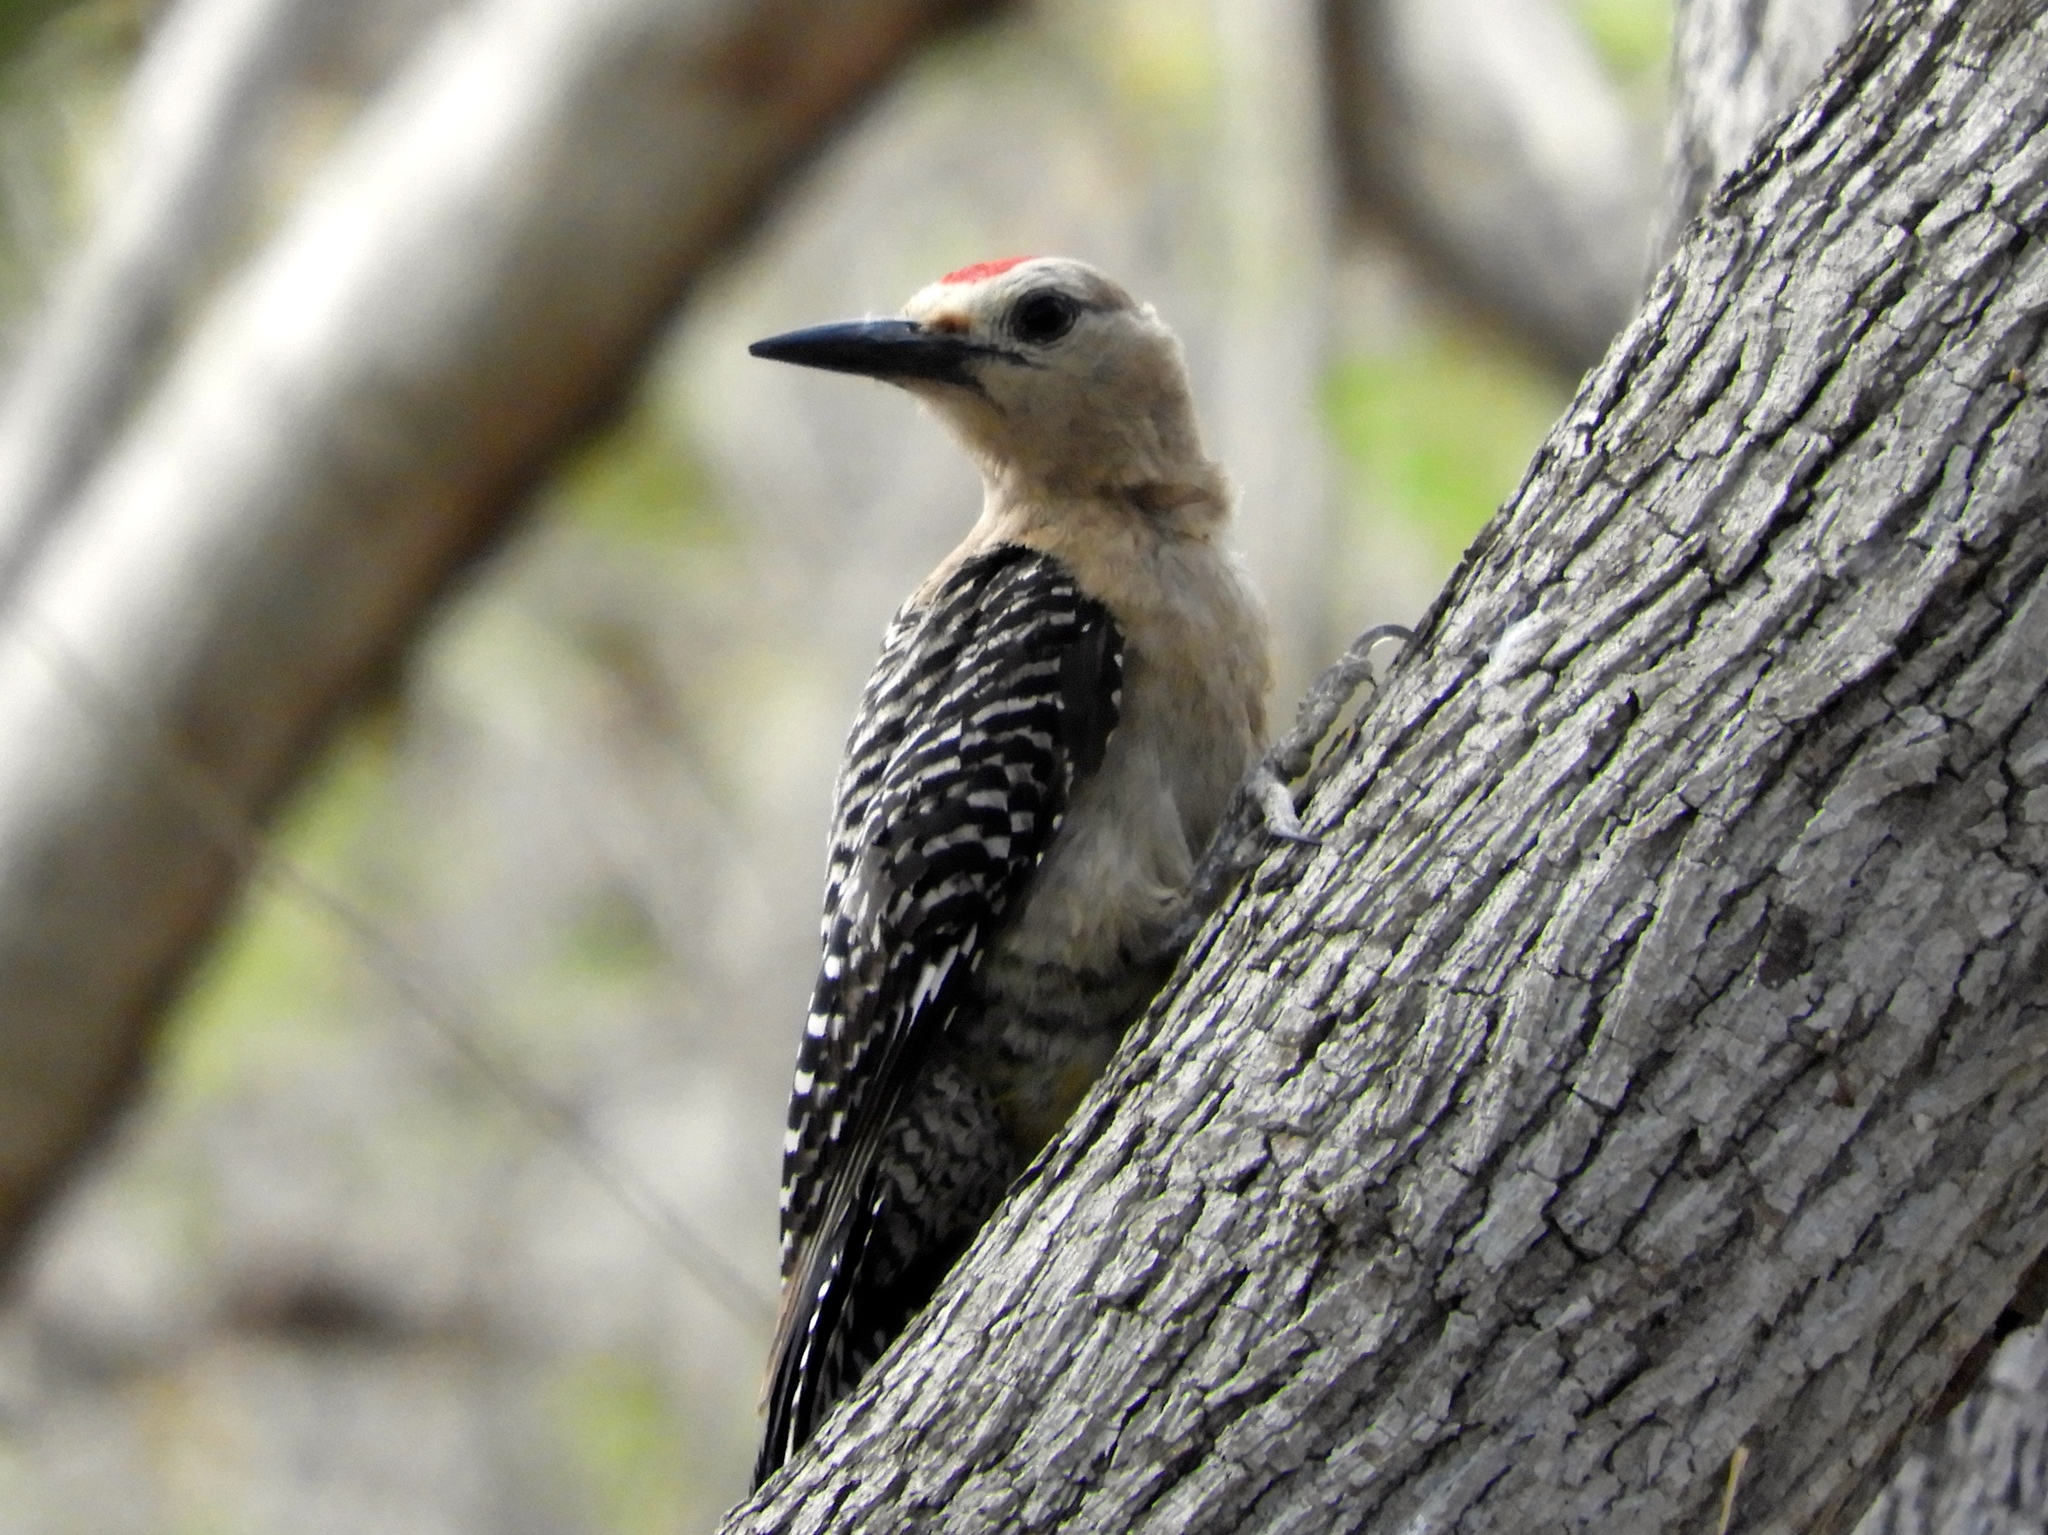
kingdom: Animalia
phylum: Chordata
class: Aves
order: Piciformes
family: Picidae
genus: Melanerpes
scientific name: Melanerpes uropygialis
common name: Gila woodpecker
